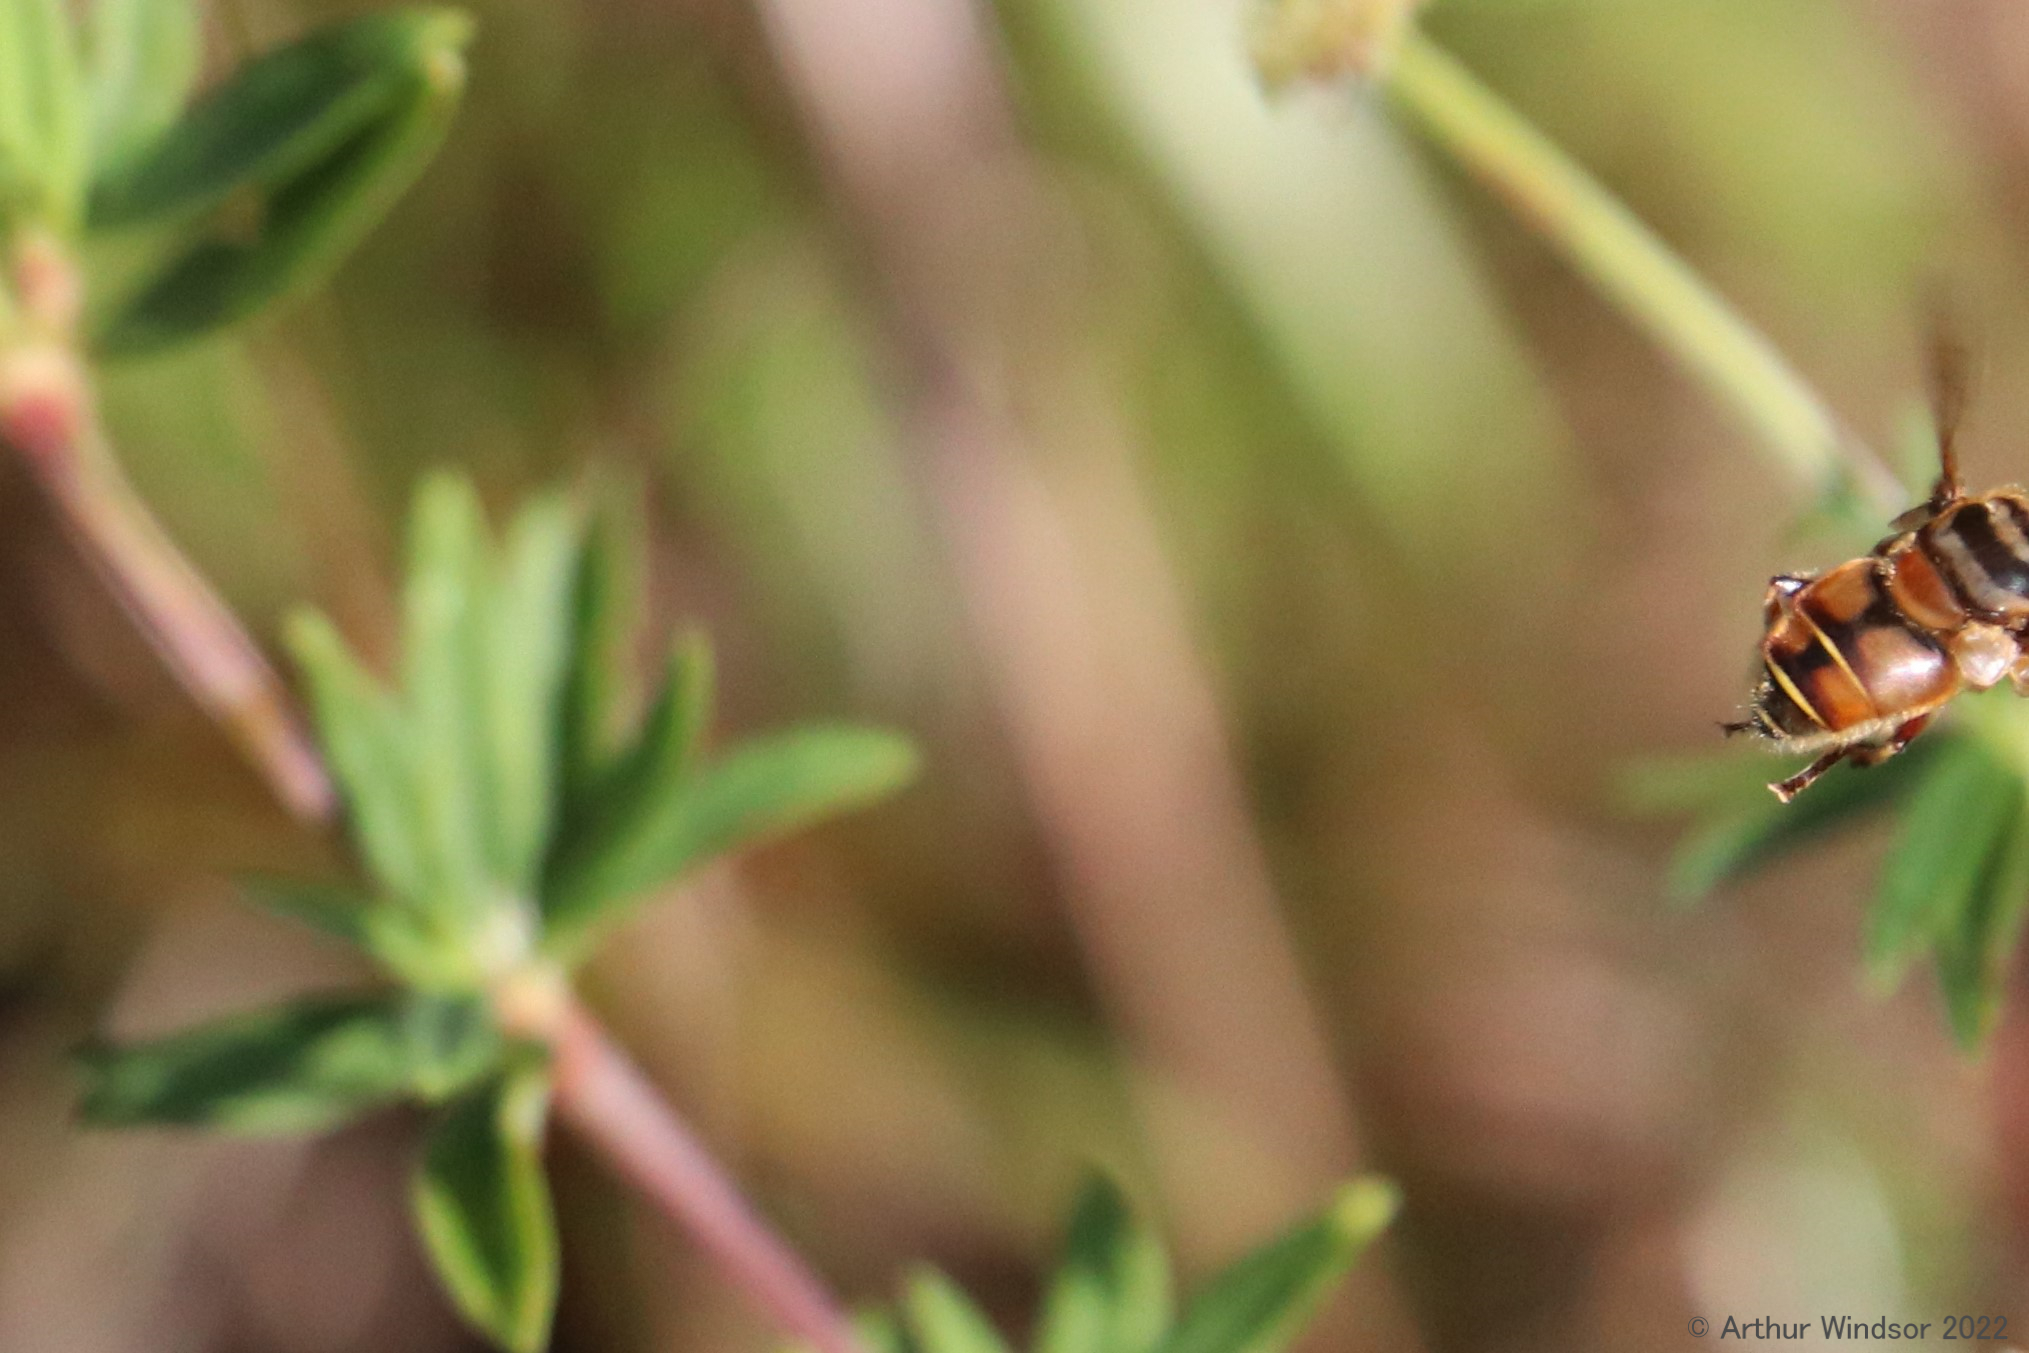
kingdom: Animalia
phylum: Arthropoda
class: Insecta
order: Diptera
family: Syrphidae
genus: Palpada
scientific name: Palpada vinetorum
